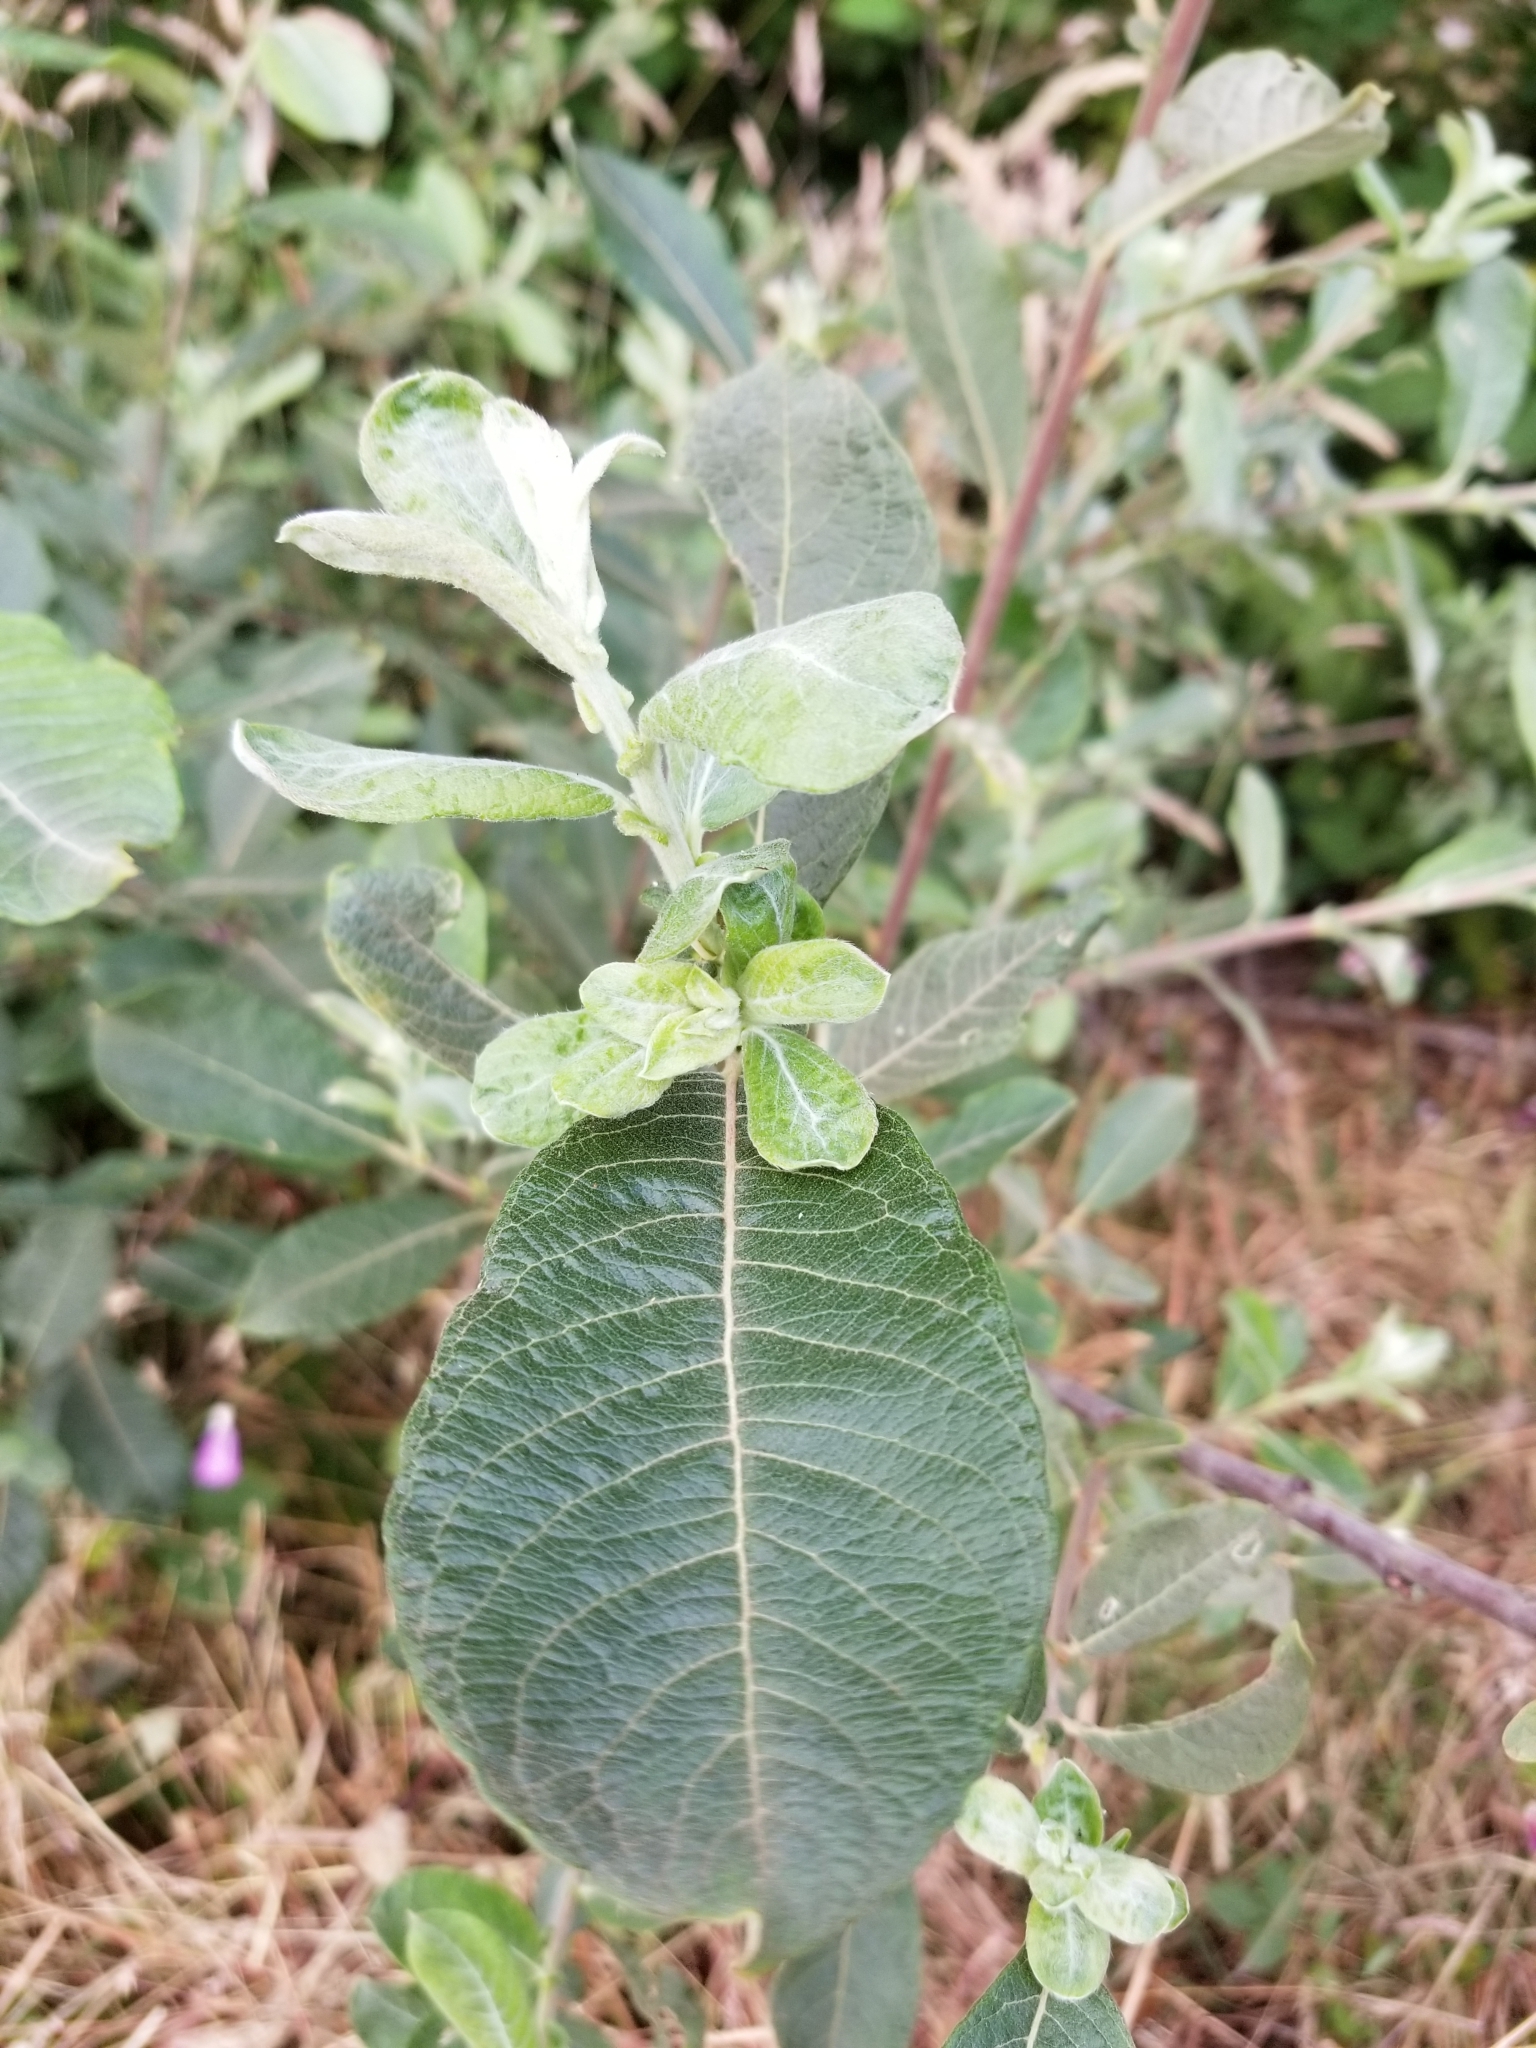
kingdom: Plantae
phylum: Tracheophyta
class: Magnoliopsida
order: Malpighiales
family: Salicaceae
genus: Salix
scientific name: Salix sitchensis
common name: Sitka willow
